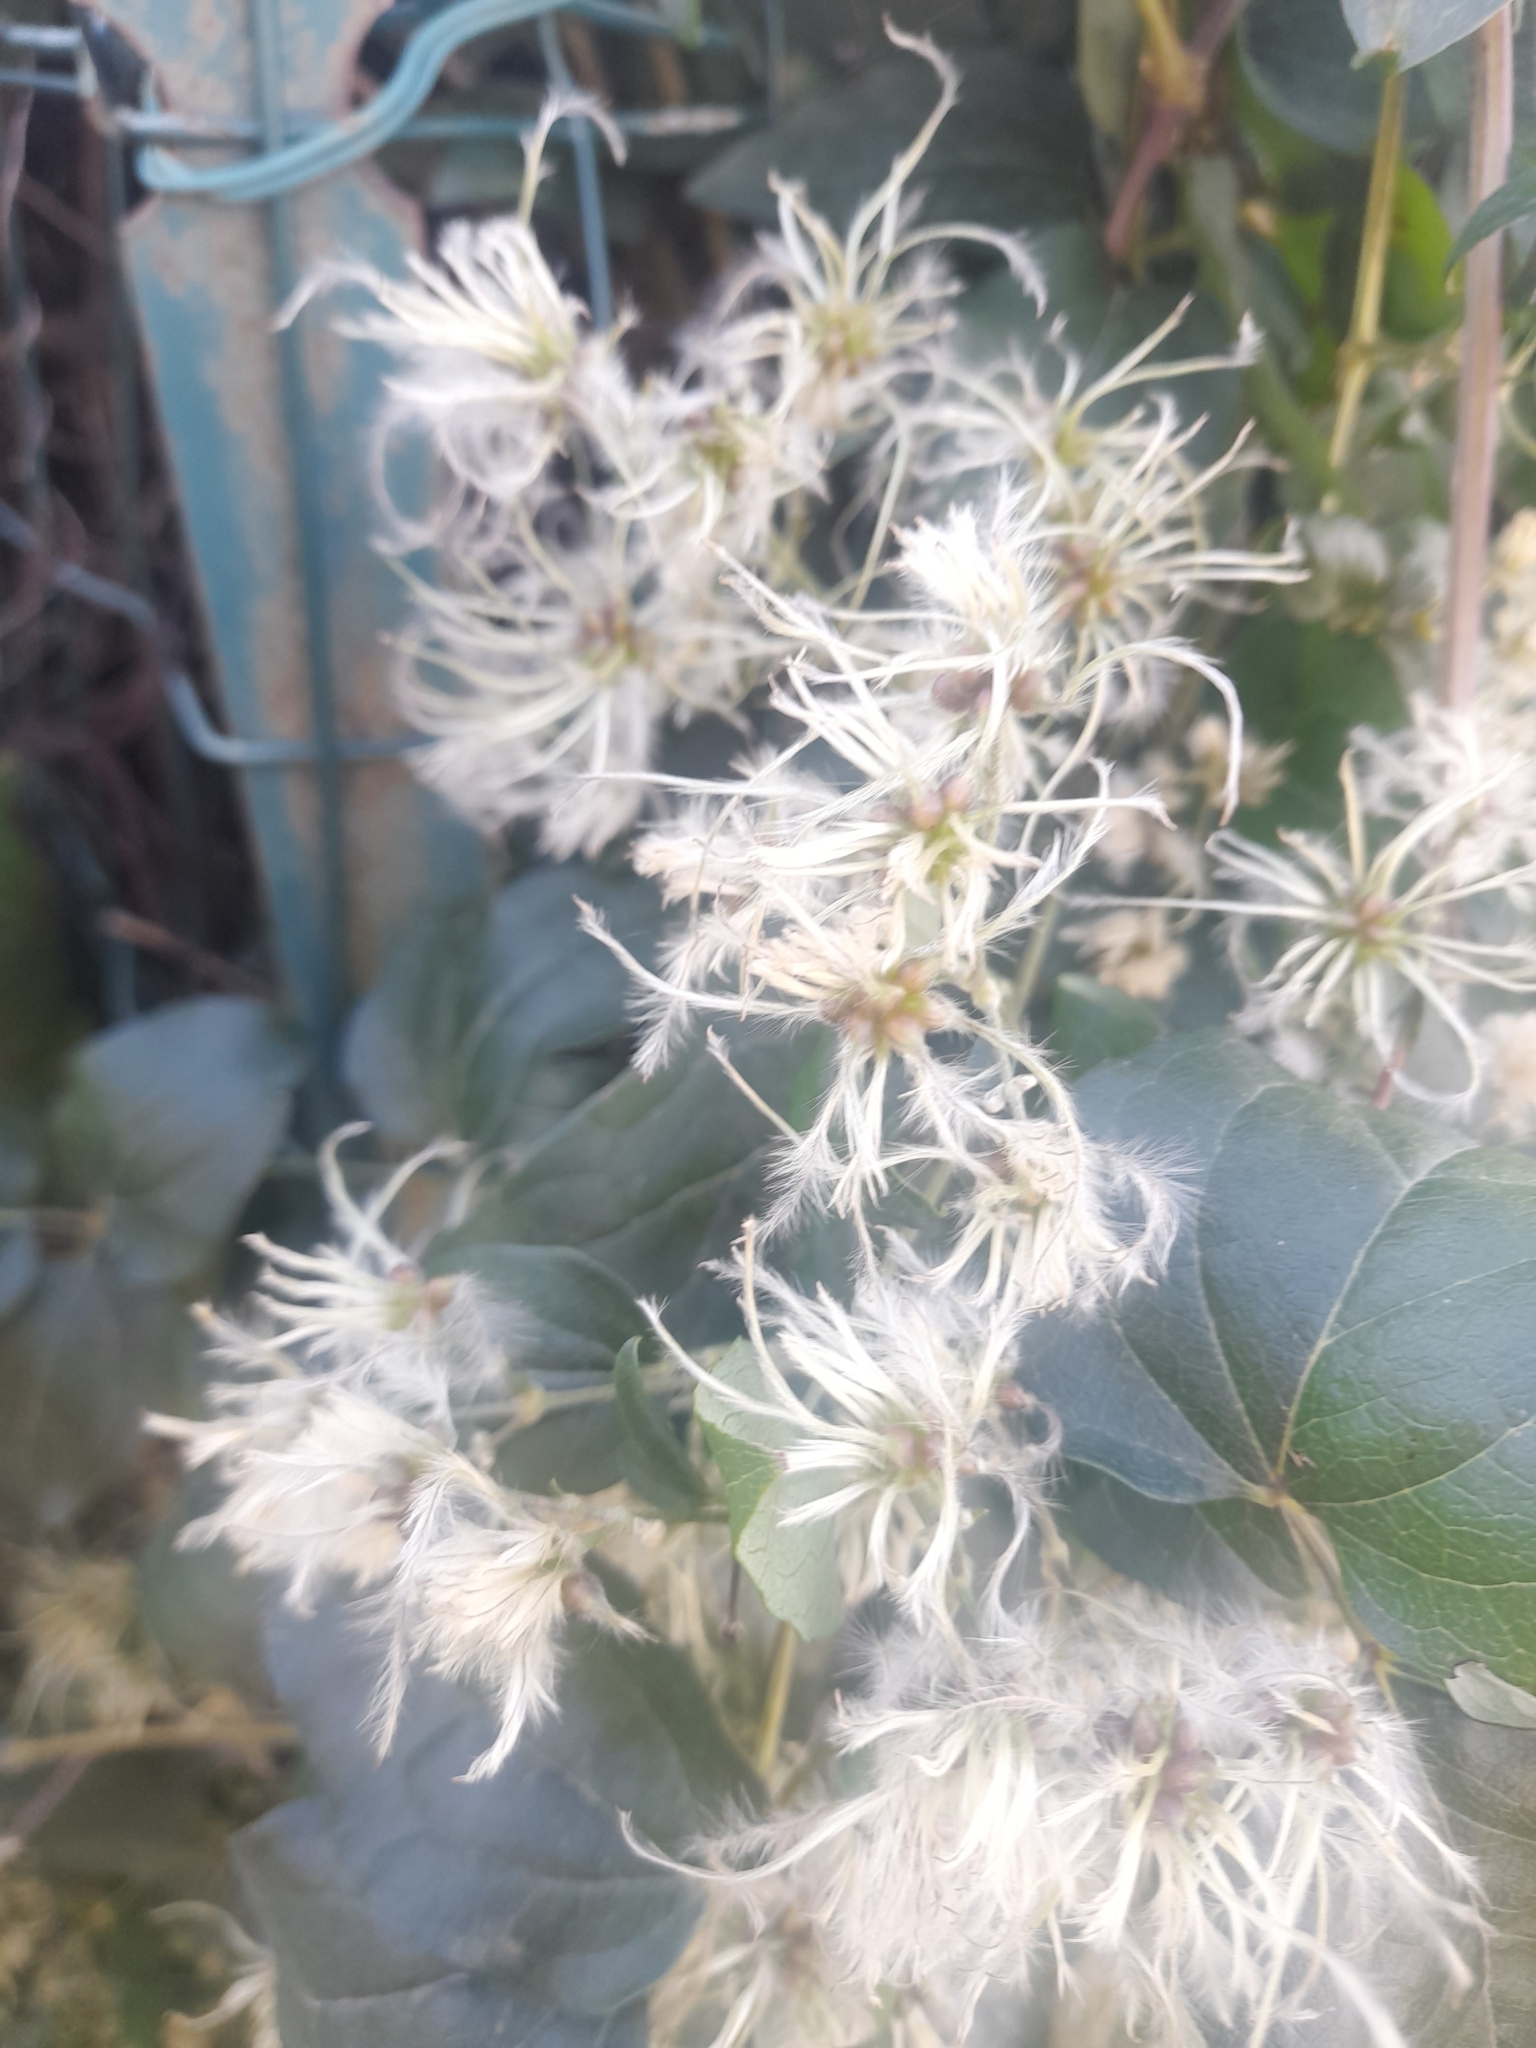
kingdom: Plantae
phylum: Tracheophyta
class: Magnoliopsida
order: Ranunculales
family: Ranunculaceae
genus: Clematis
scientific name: Clematis vitalba
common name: Evergreen clematis
